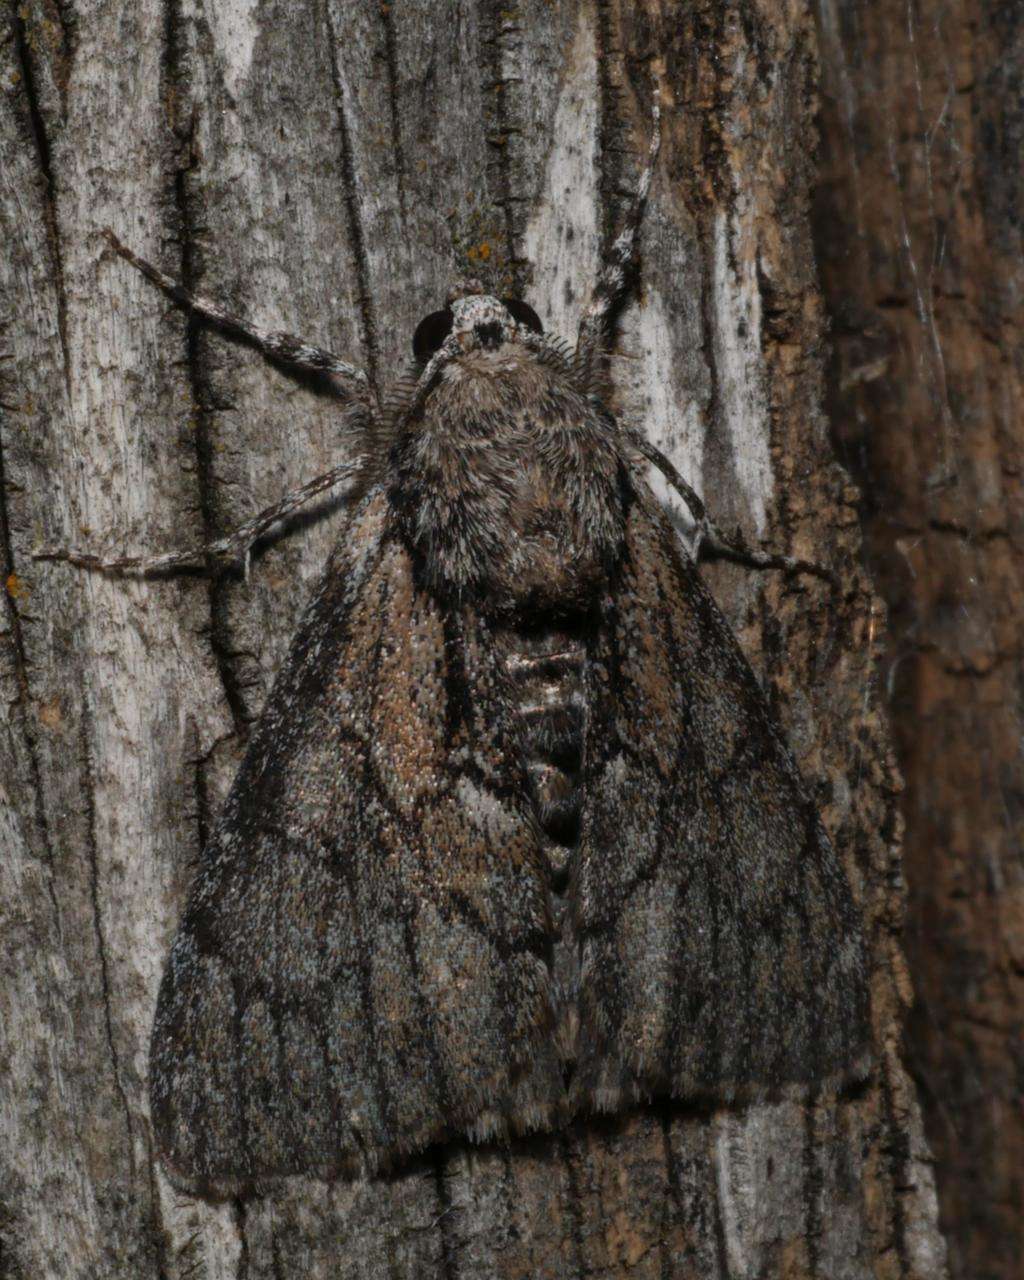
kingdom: Animalia
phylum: Arthropoda
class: Insecta
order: Lepidoptera
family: Geometridae
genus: Rhuma
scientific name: Rhuma argyraspis
